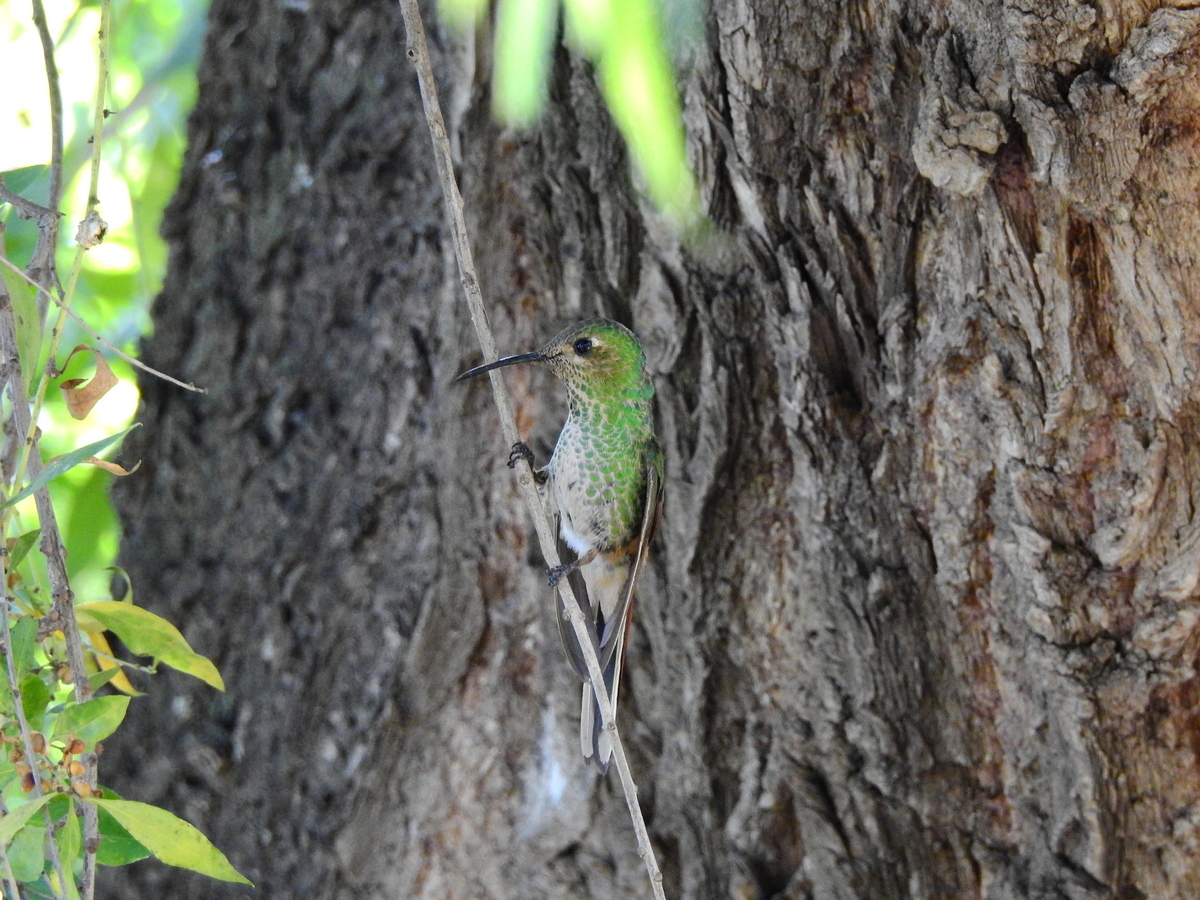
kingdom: Animalia
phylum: Chordata
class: Aves
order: Apodiformes
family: Trochilidae
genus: Sappho
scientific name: Sappho sparganurus
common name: Red-tailed comet
